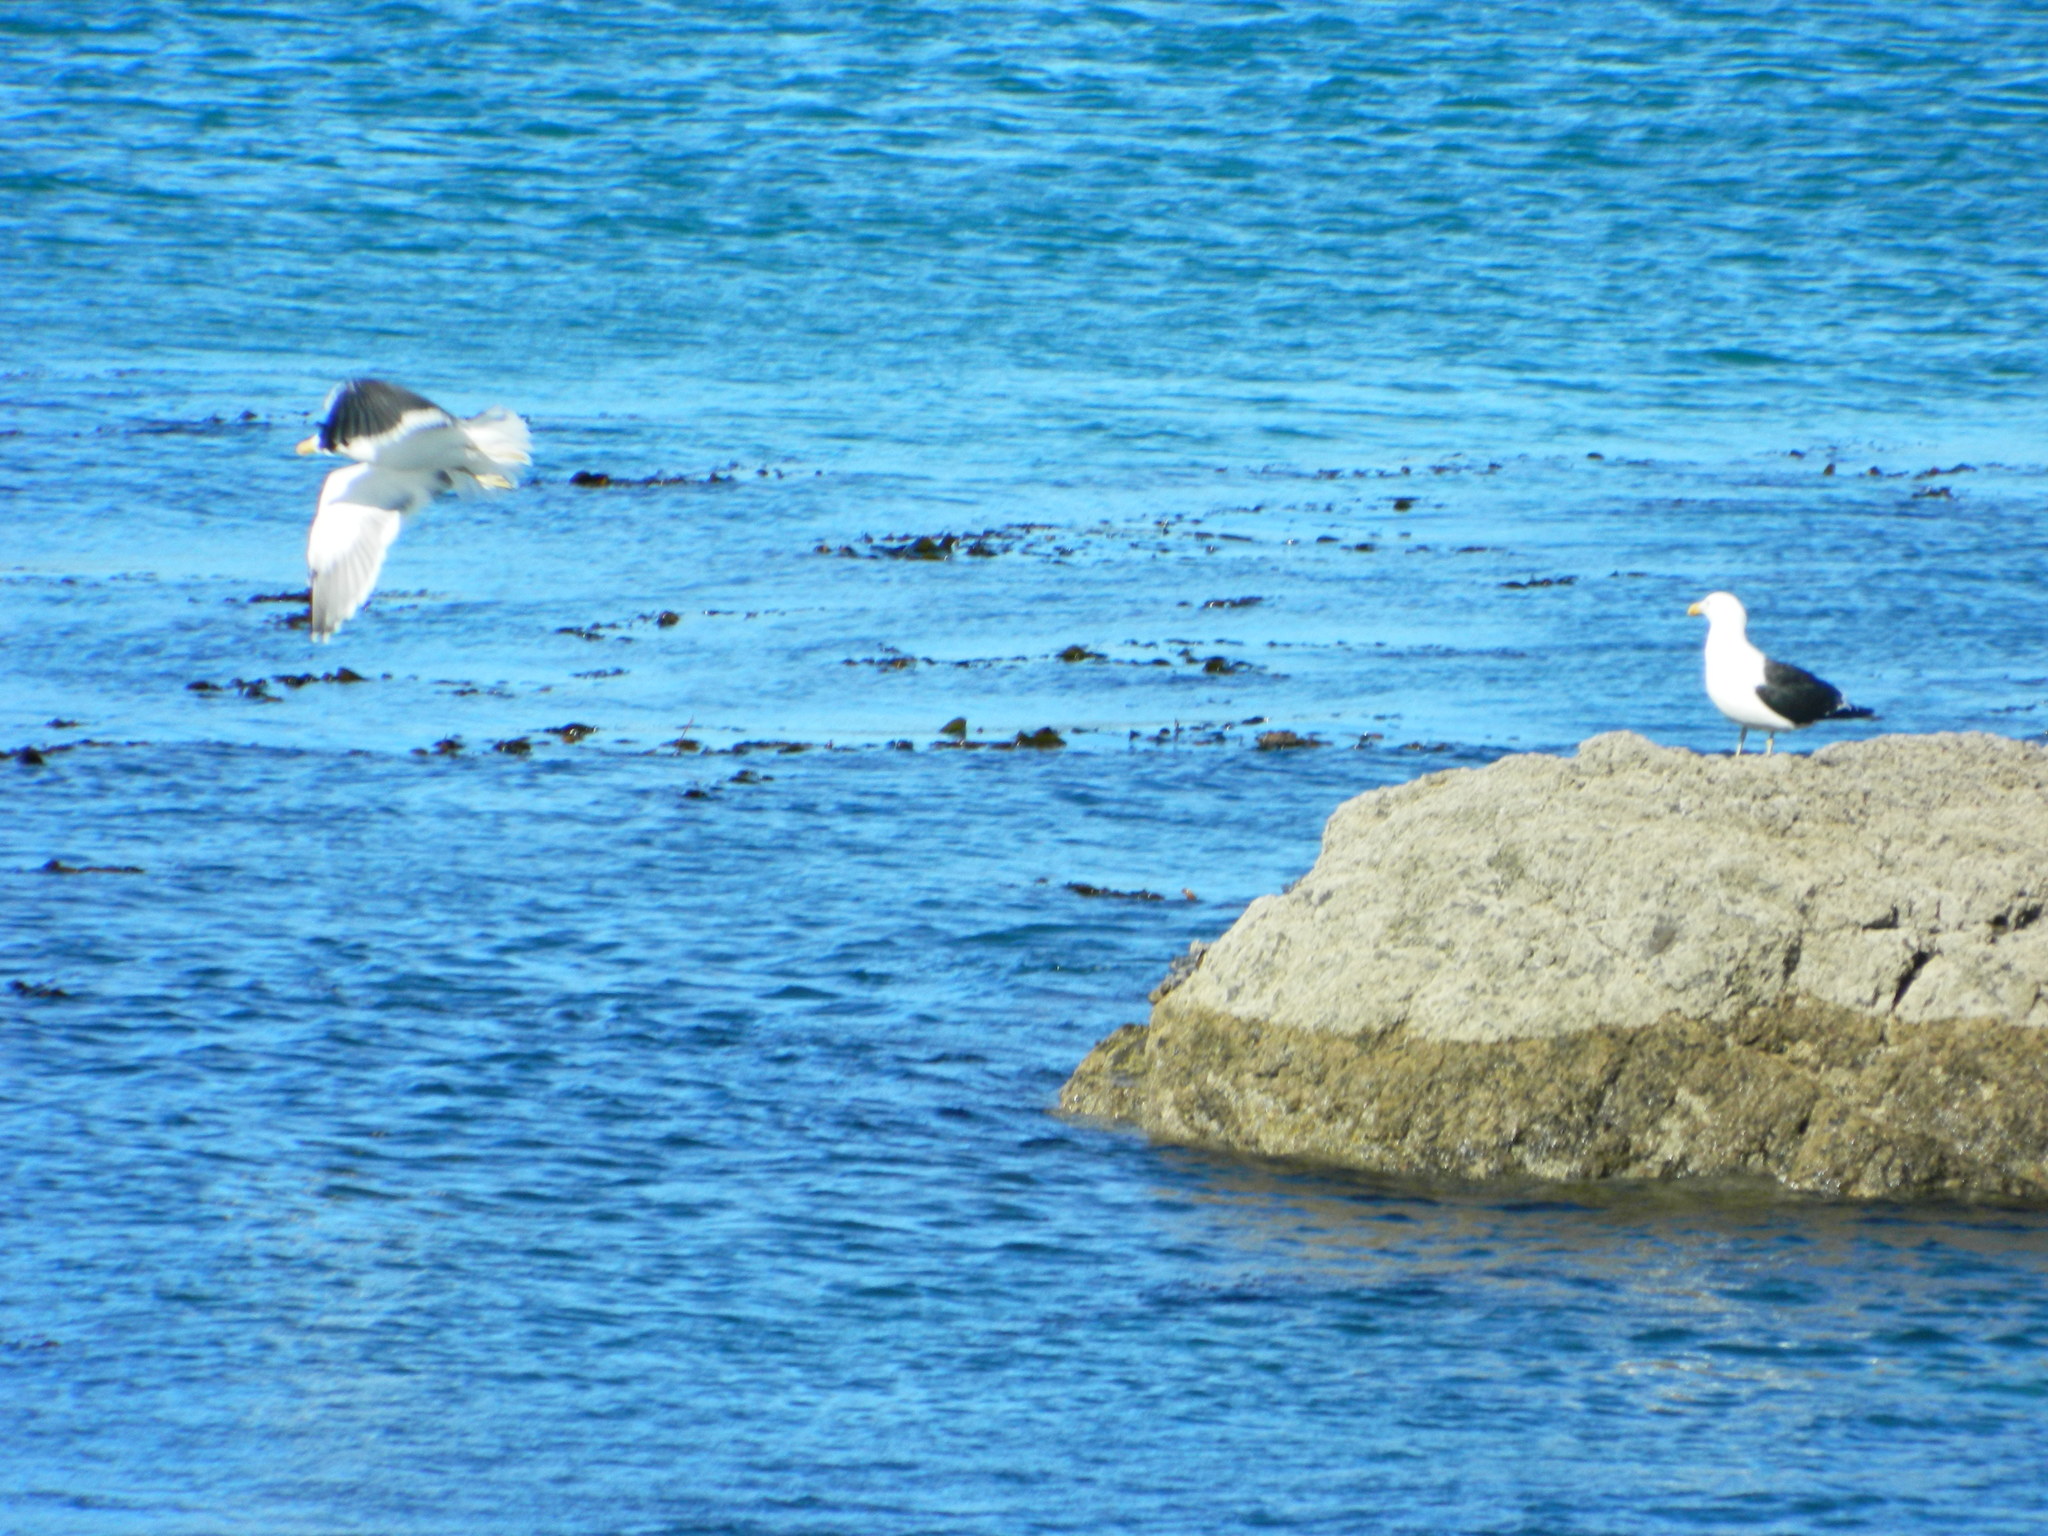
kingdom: Animalia
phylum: Chordata
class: Aves
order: Charadriiformes
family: Laridae
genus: Larus
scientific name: Larus dominicanus
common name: Kelp gull
